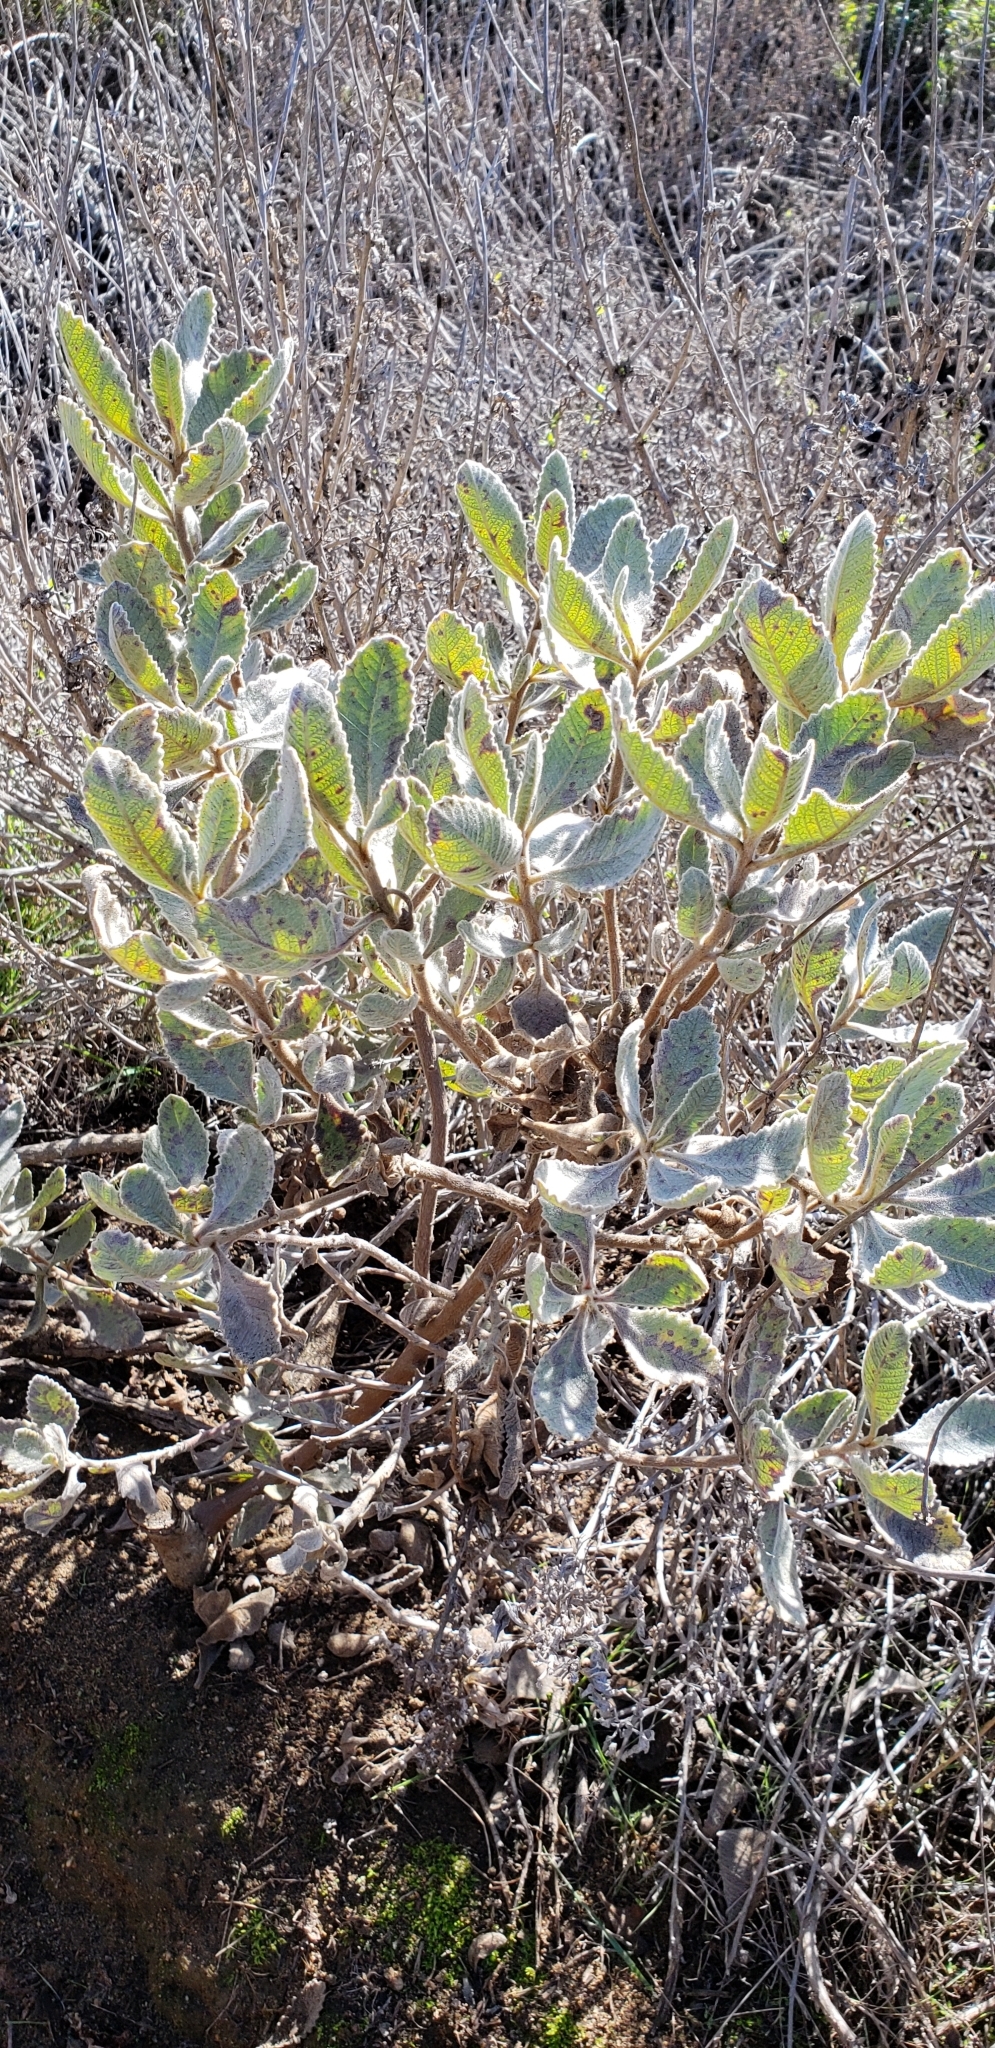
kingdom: Plantae
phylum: Tracheophyta
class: Magnoliopsida
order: Boraginales
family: Namaceae
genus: Eriodictyon
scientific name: Eriodictyon crassifolium
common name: Thick-leaf yerba-santa
